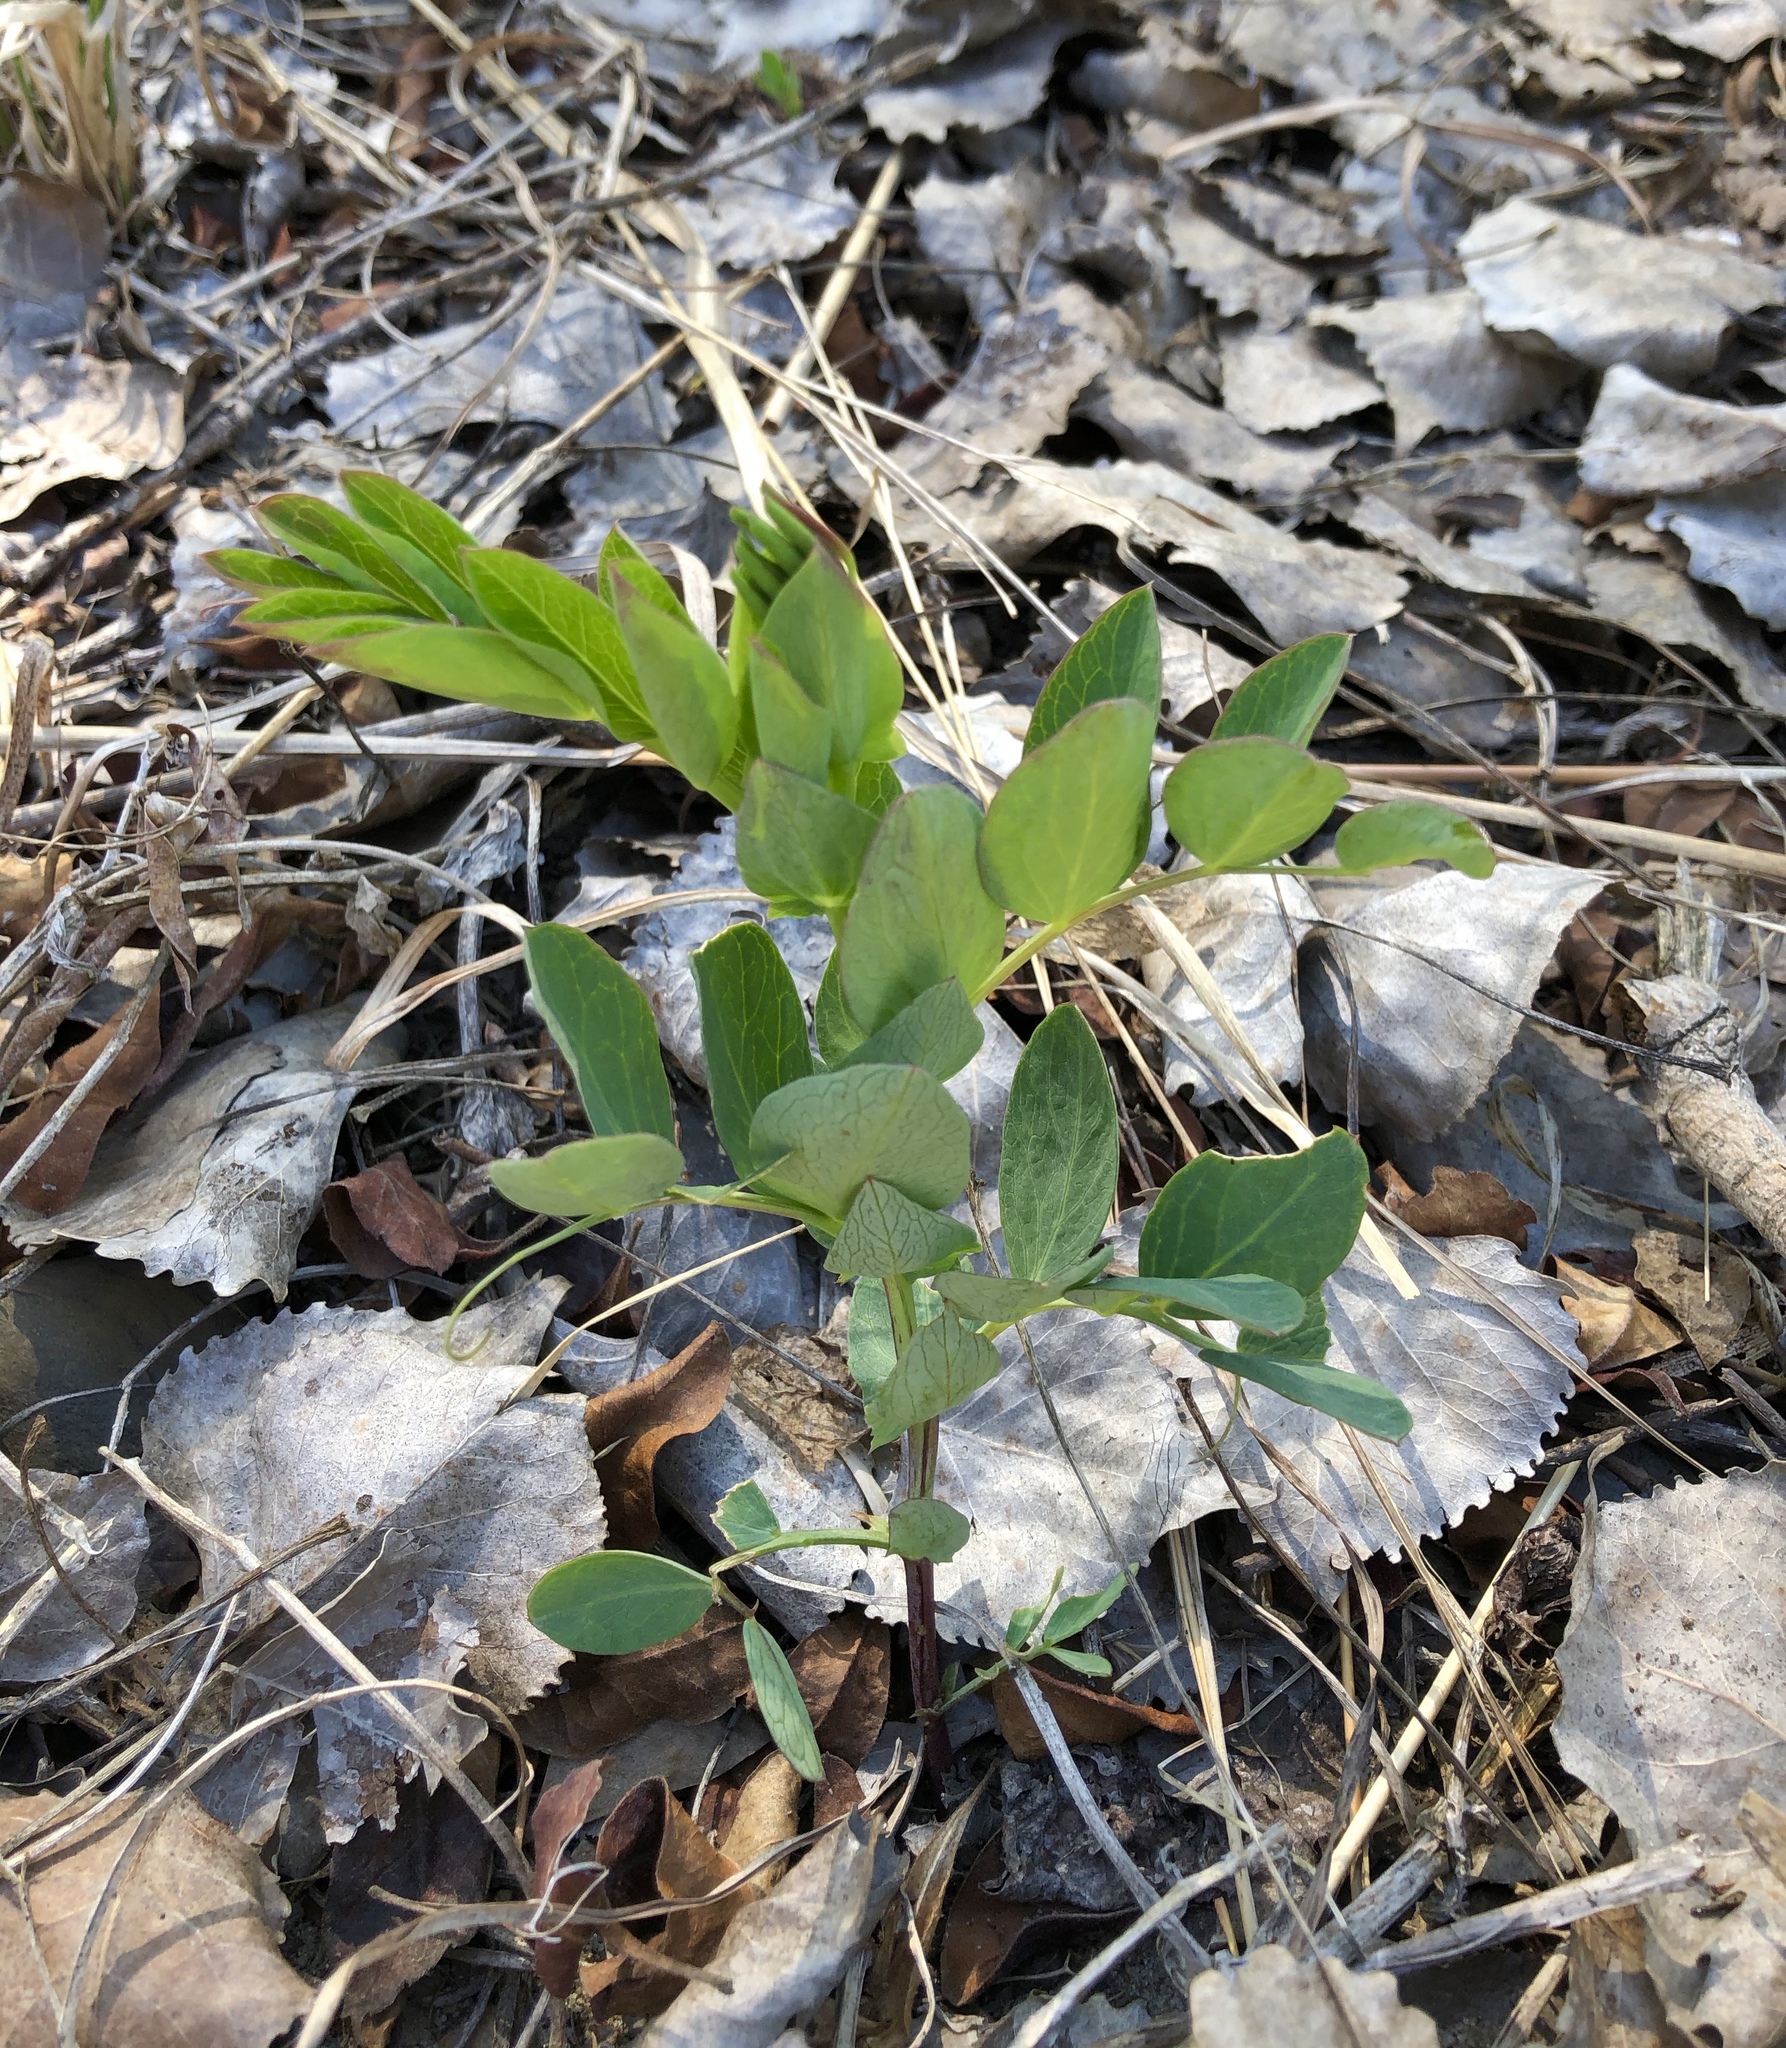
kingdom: Plantae
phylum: Tracheophyta
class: Magnoliopsida
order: Fabales
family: Fabaceae
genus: Lathyrus
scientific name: Lathyrus japonicus
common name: Sea pea
